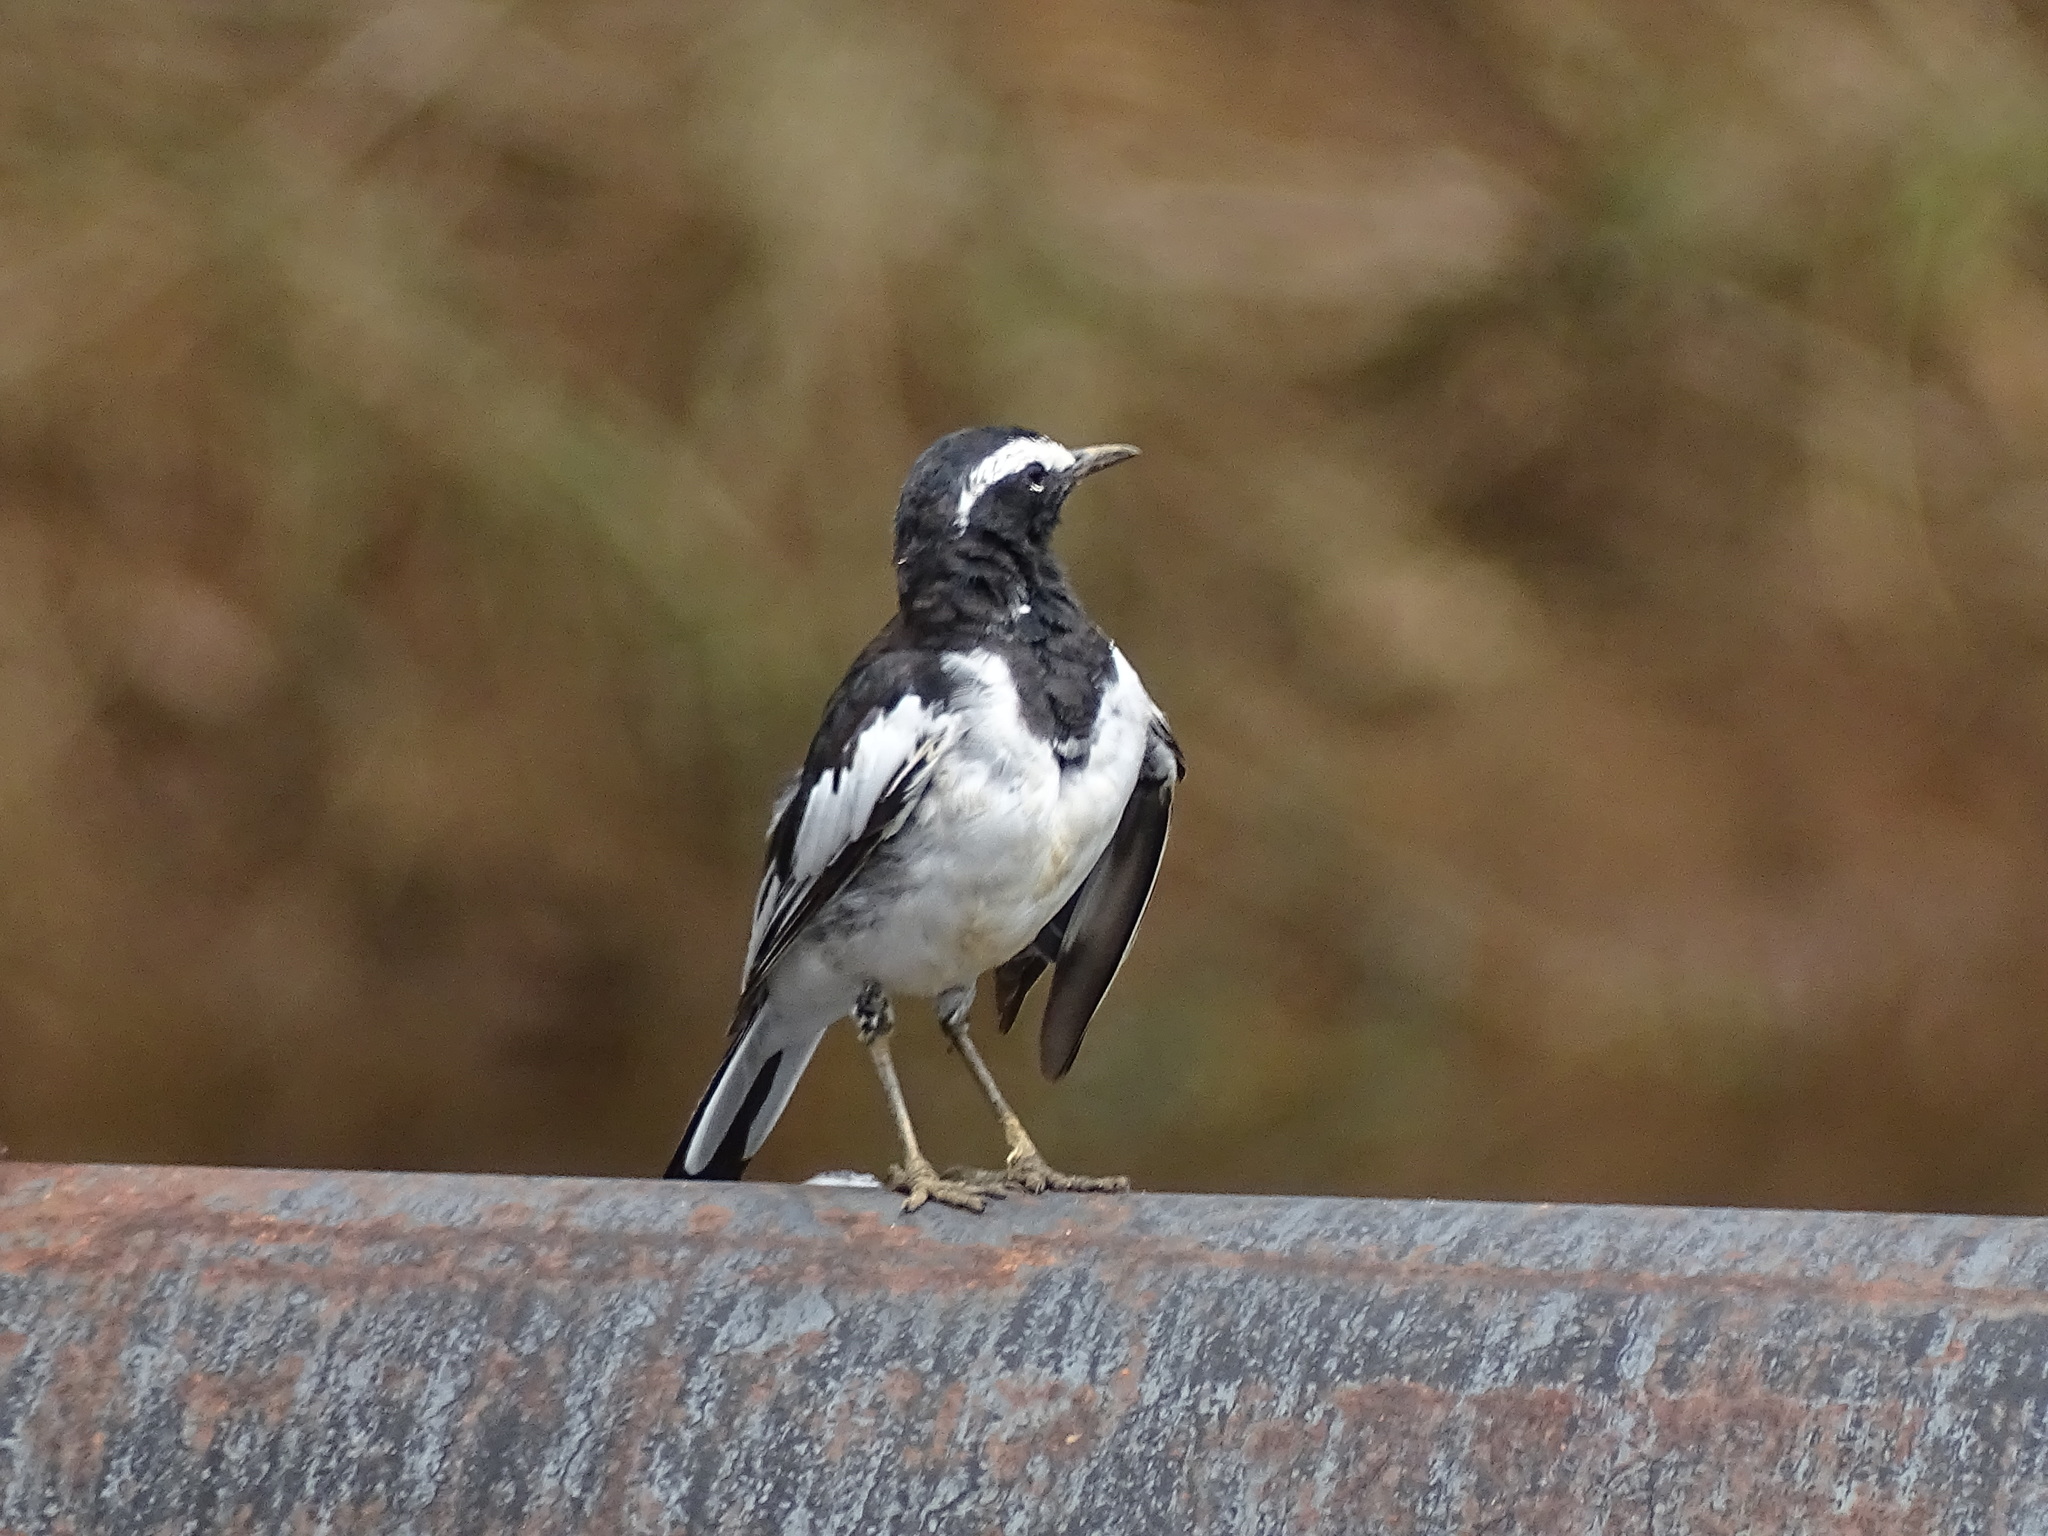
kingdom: Animalia
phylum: Chordata
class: Aves
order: Passeriformes
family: Motacillidae
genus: Motacilla
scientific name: Motacilla maderaspatensis
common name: White-browed wagtail
